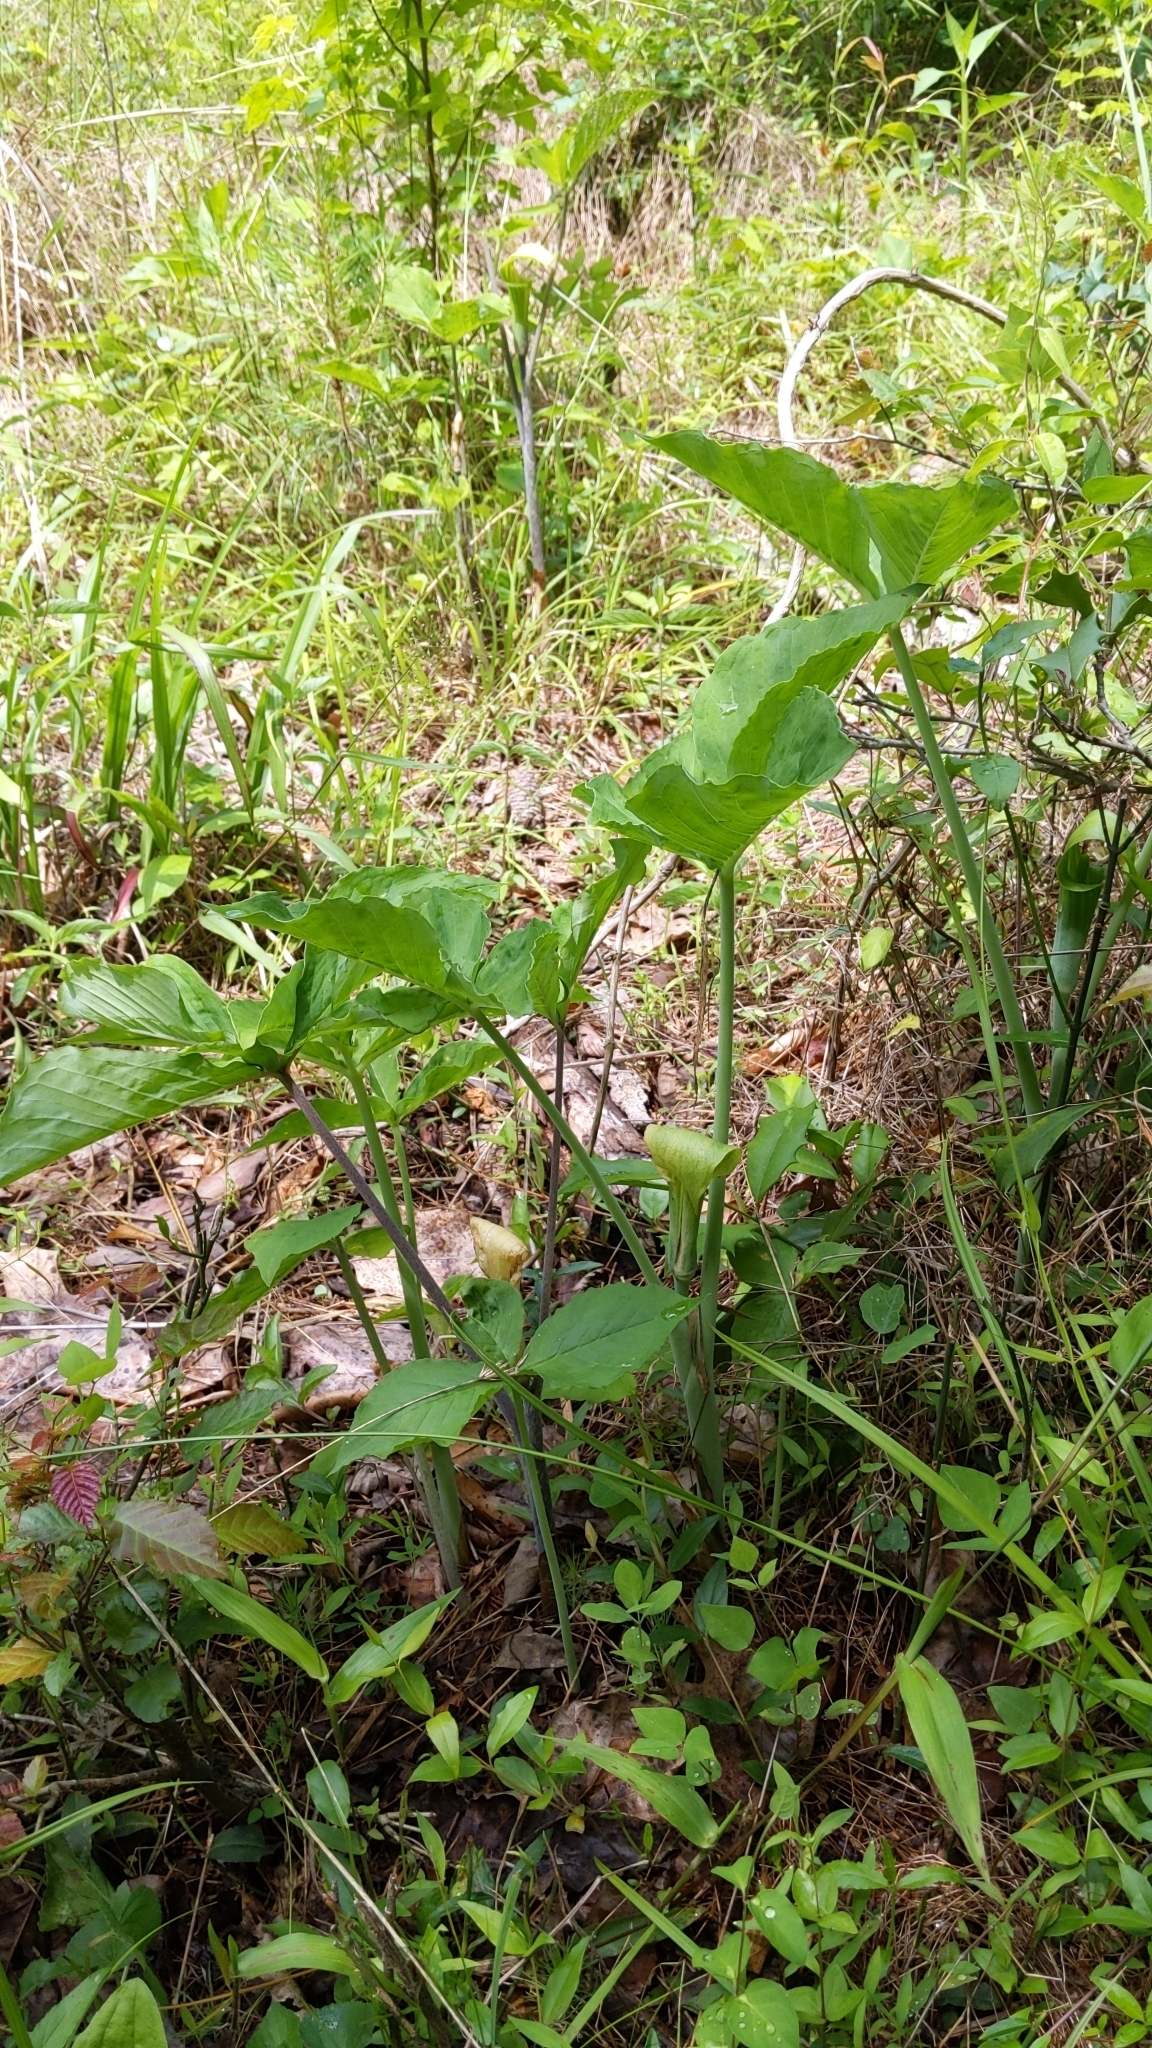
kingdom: Plantae
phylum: Tracheophyta
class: Liliopsida
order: Alismatales
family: Araceae
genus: Arisaema
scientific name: Arisaema triphyllum
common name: Jack-in-the-pulpit
